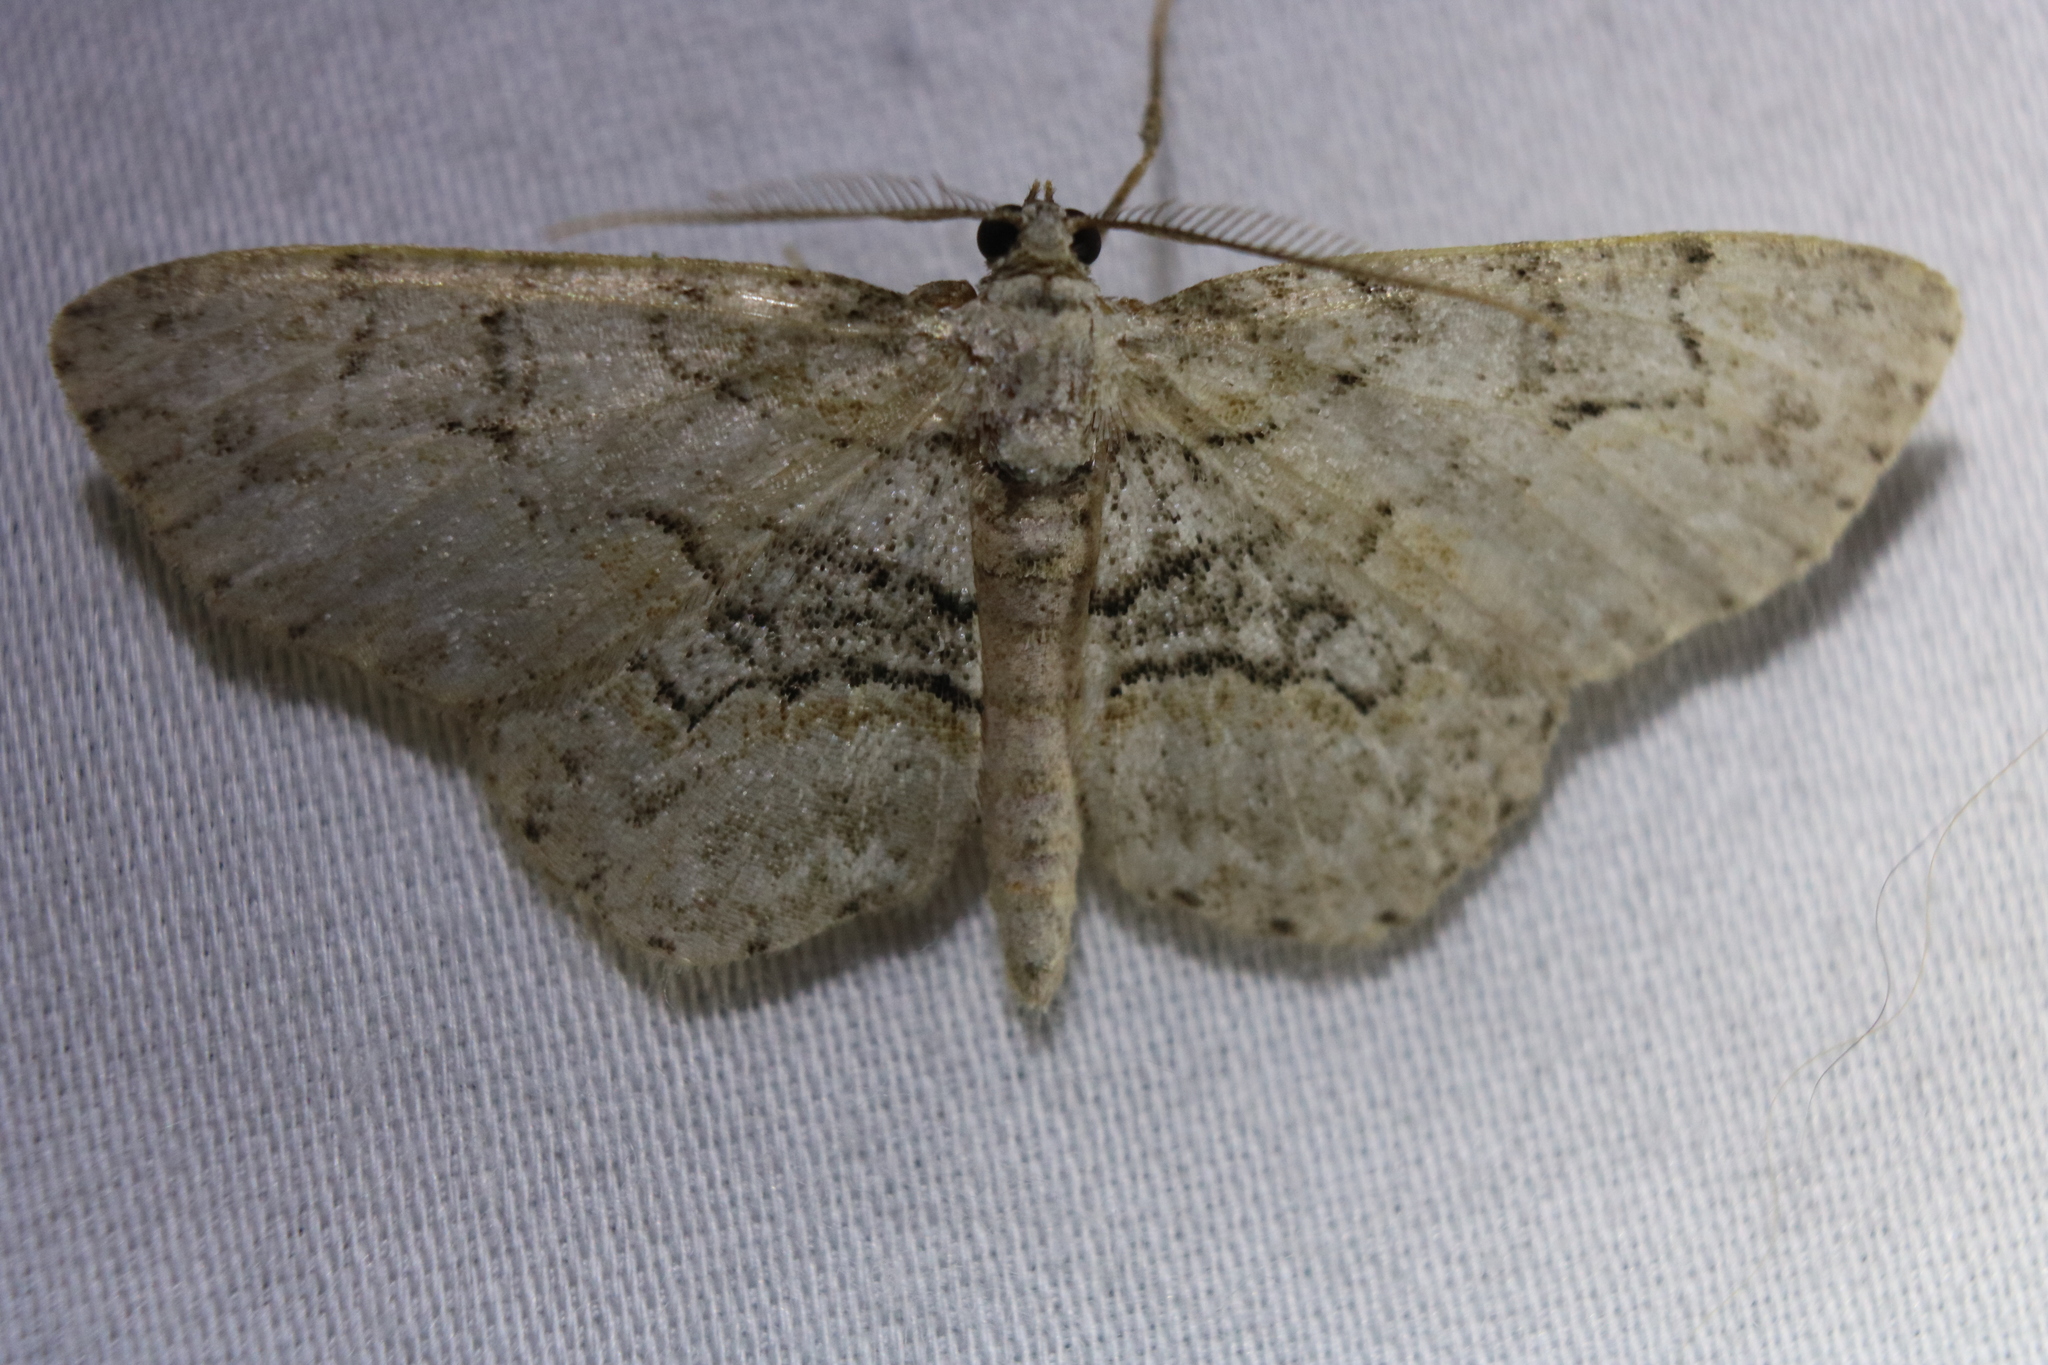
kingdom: Animalia
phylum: Arthropoda
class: Insecta
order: Lepidoptera
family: Geometridae
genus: Iridopsis
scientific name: Iridopsis ephyraria
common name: Pale-winged gray
